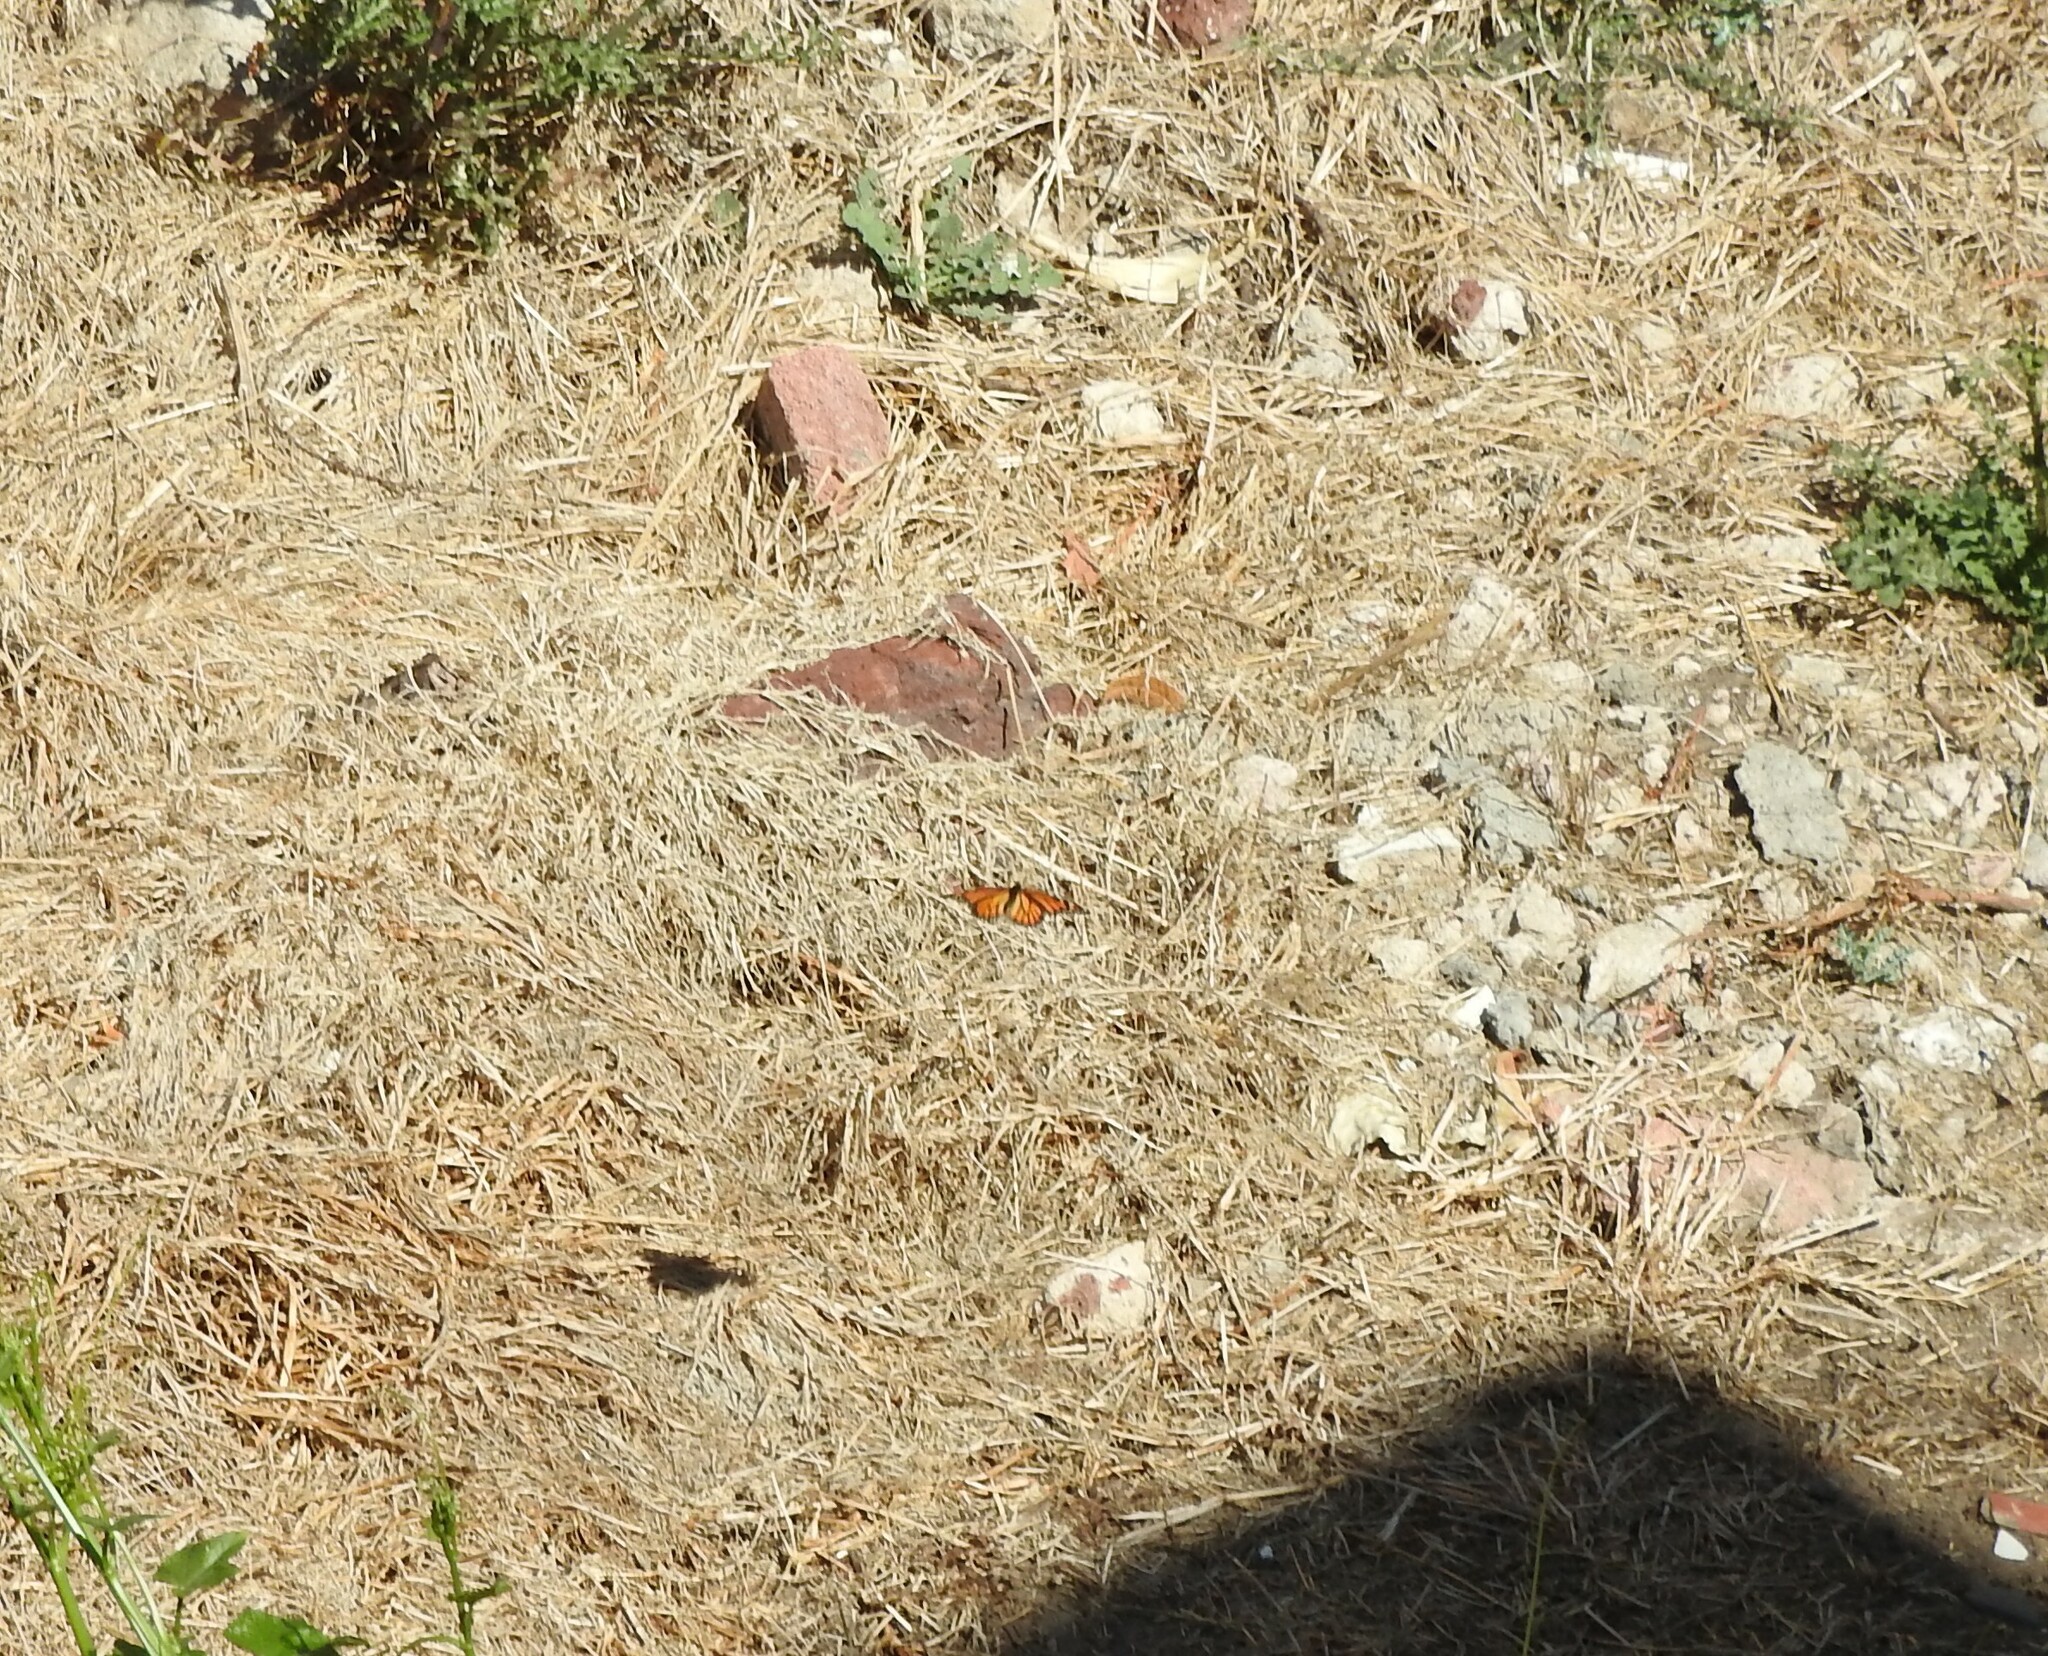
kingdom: Animalia
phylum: Arthropoda
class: Insecta
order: Lepidoptera
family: Nymphalidae
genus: Danaus
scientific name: Danaus plexippus
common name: Monarch
